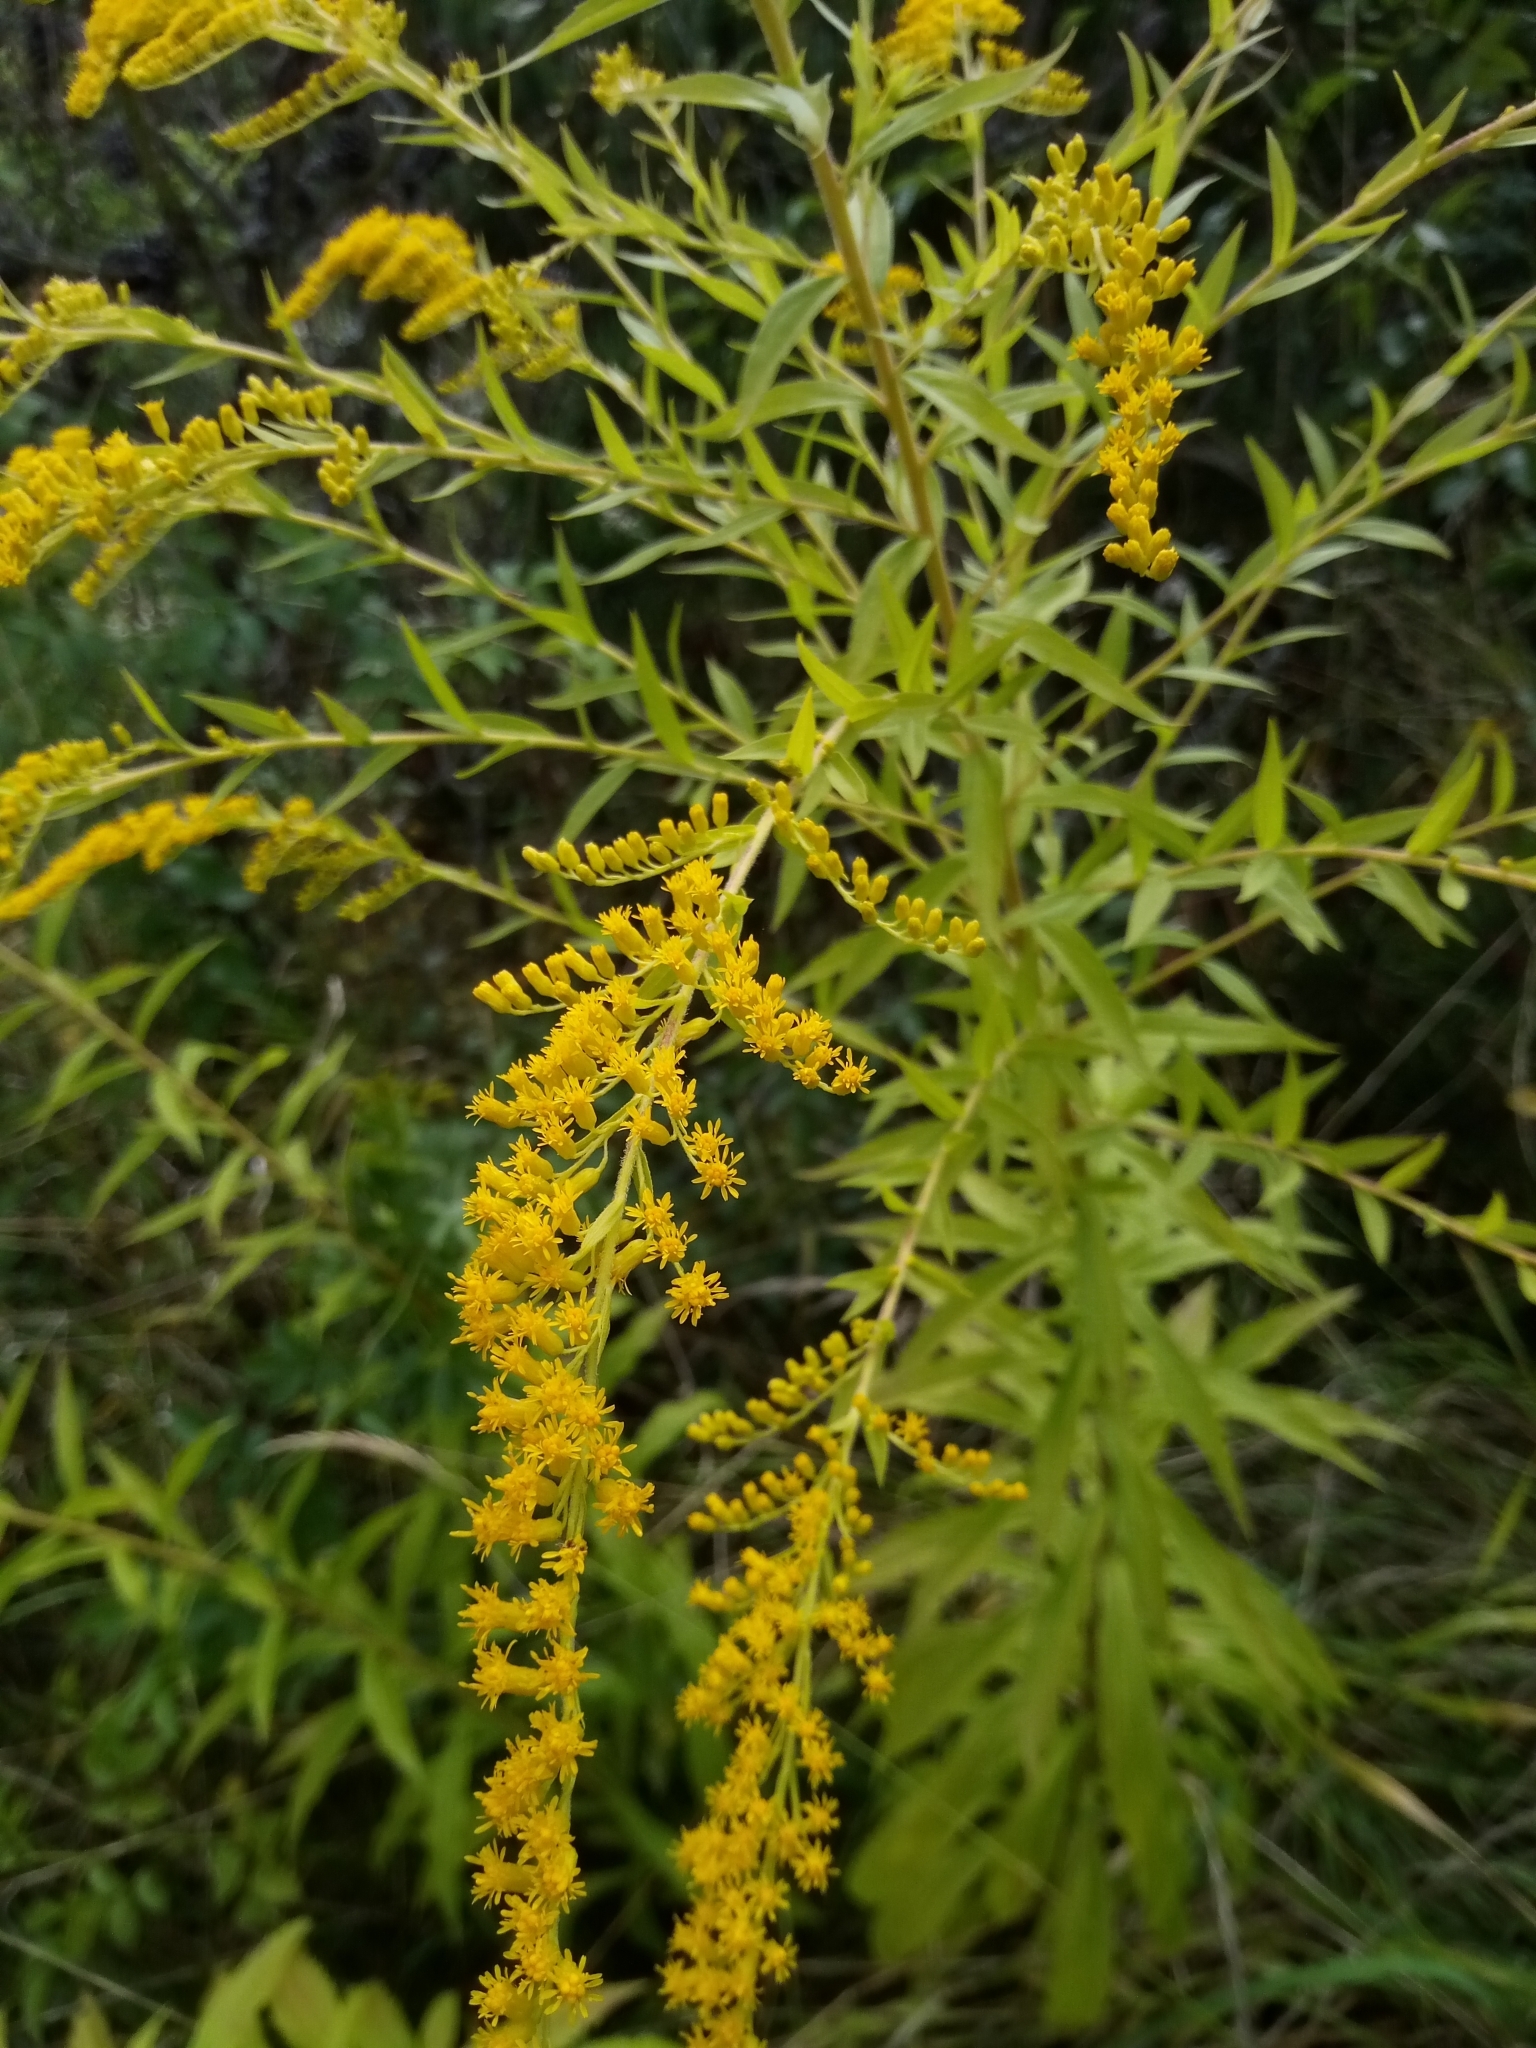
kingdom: Plantae
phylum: Tracheophyta
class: Magnoliopsida
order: Asterales
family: Asteraceae
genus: Solidago
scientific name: Solidago canadensis
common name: Canada goldenrod
